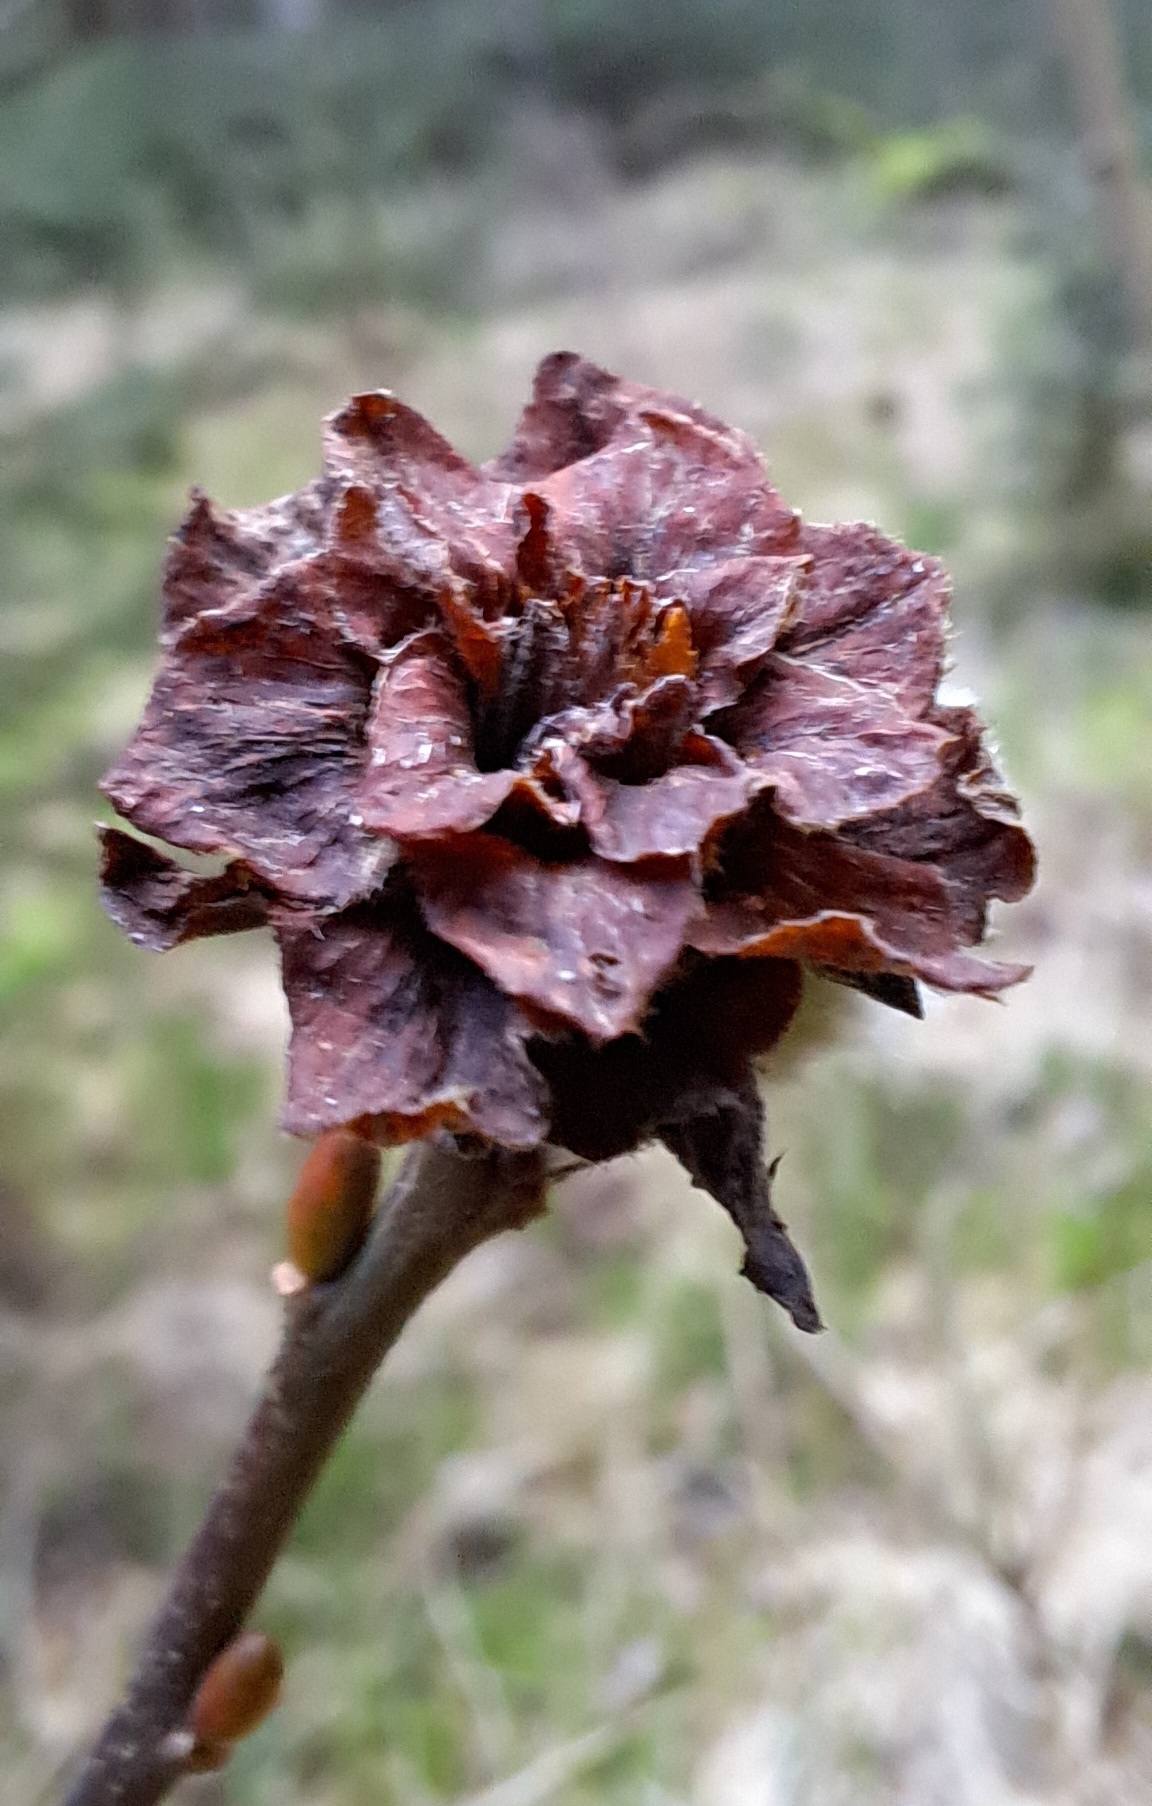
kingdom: Animalia
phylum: Arthropoda
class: Insecta
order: Diptera
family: Cecidomyiidae
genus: Rabdophaga
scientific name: Rabdophaga rosaria
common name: Willow rose gall midge
